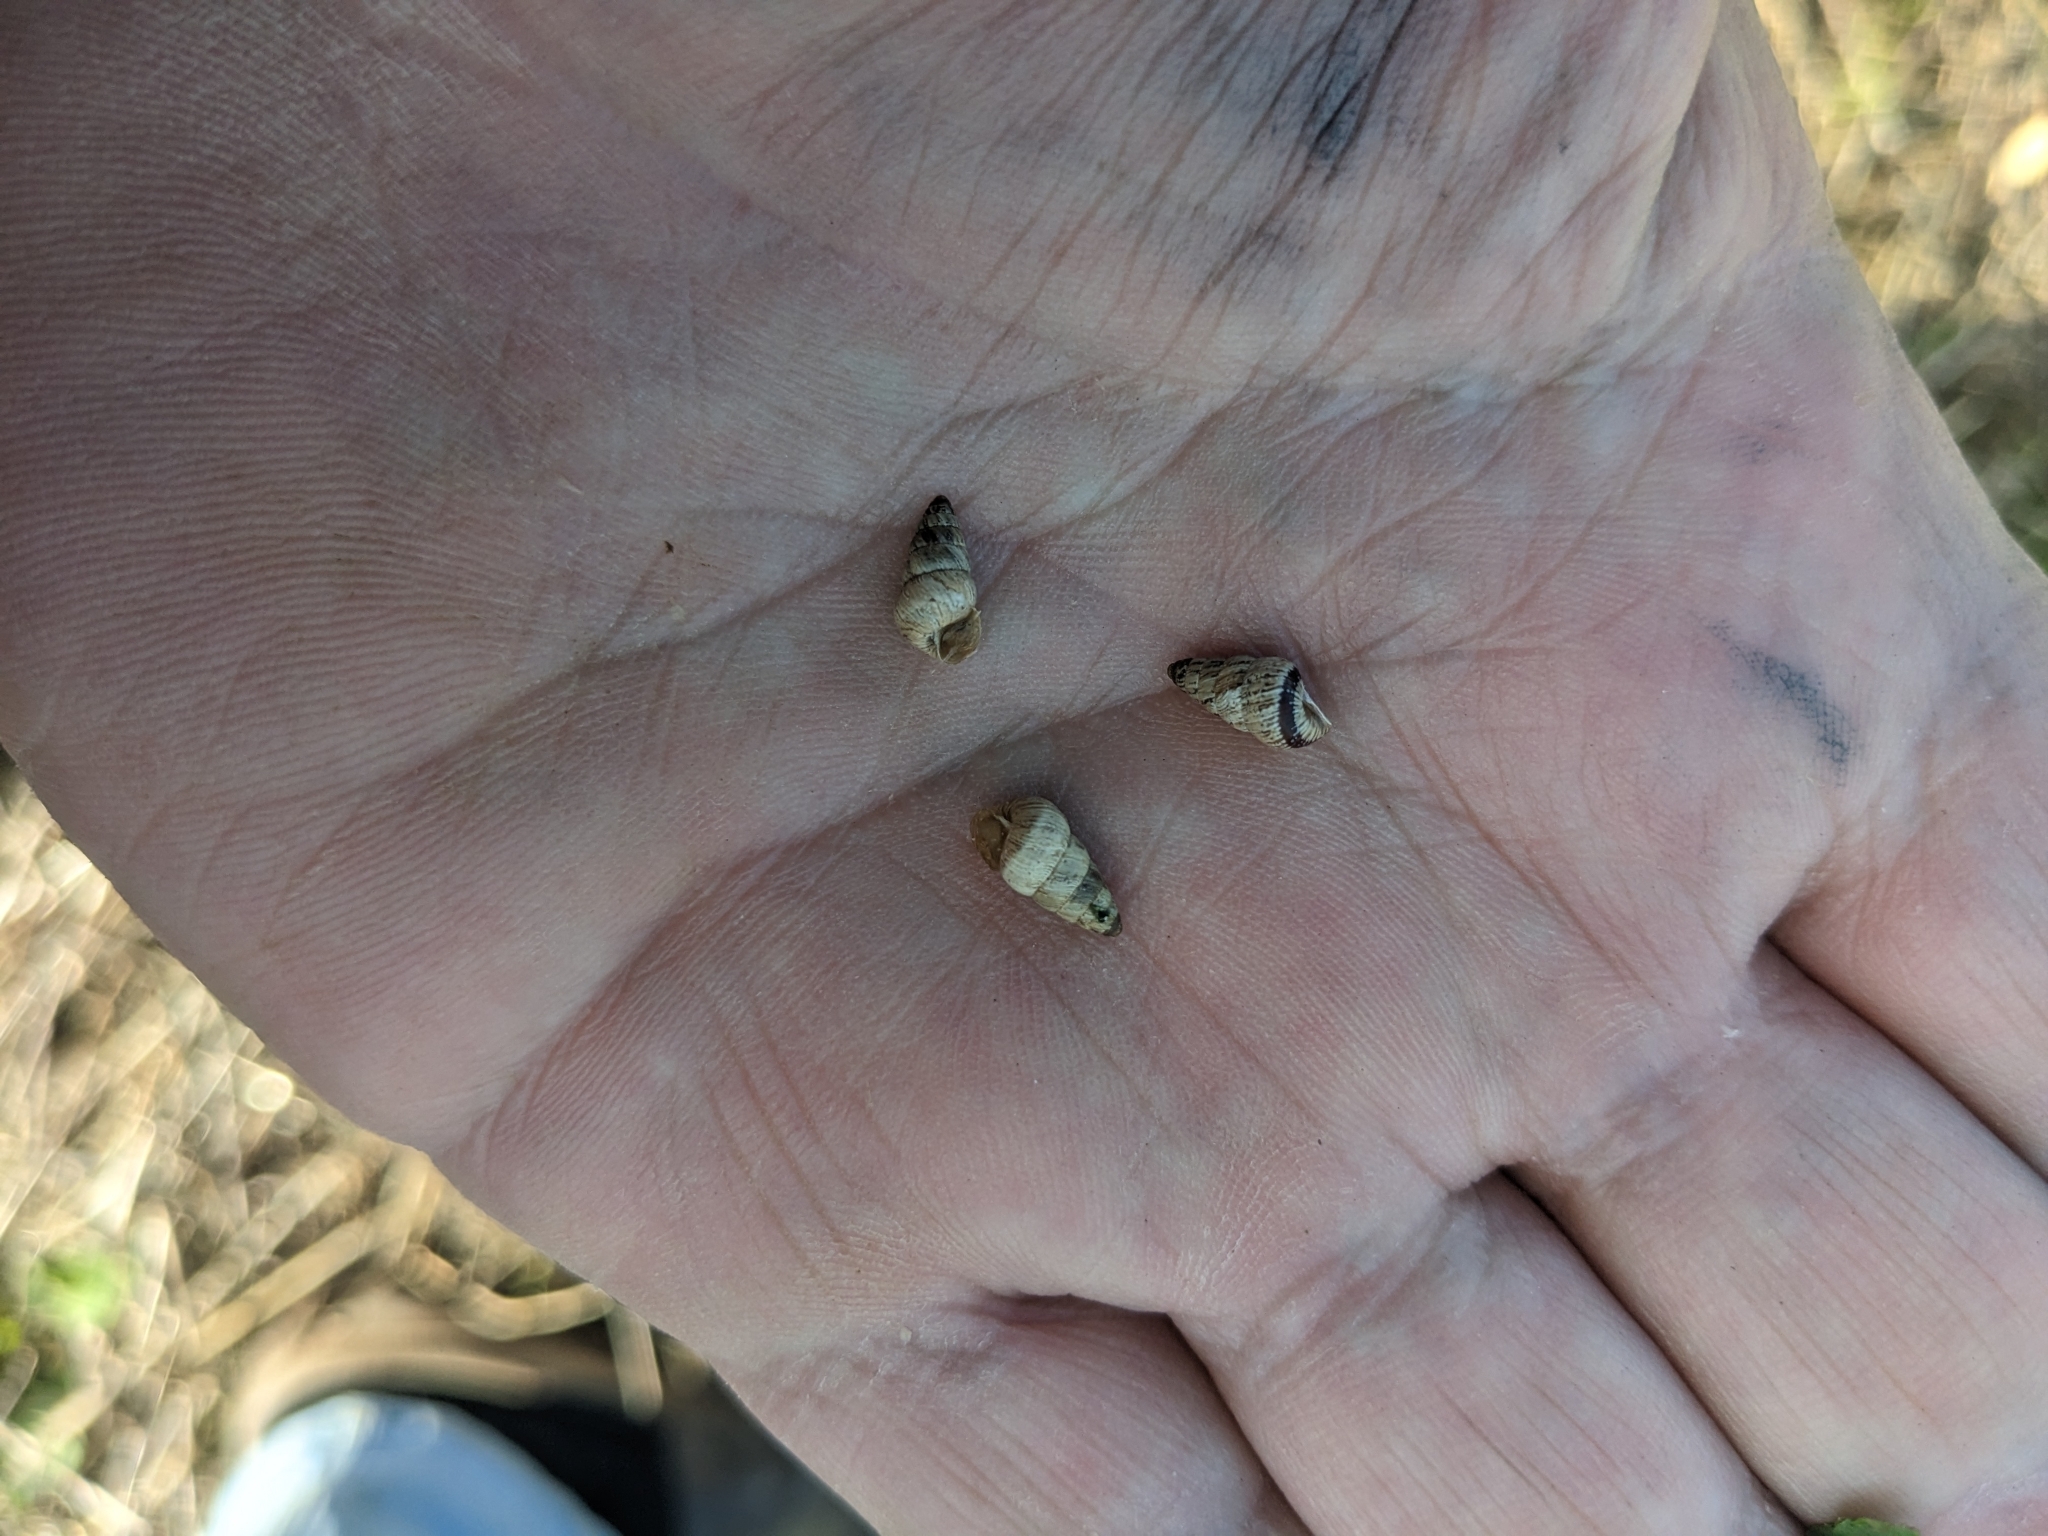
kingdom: Animalia
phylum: Mollusca
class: Gastropoda
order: Stylommatophora
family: Geomitridae
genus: Cochlicella
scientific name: Cochlicella barbara
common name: Potbellied helicellid
